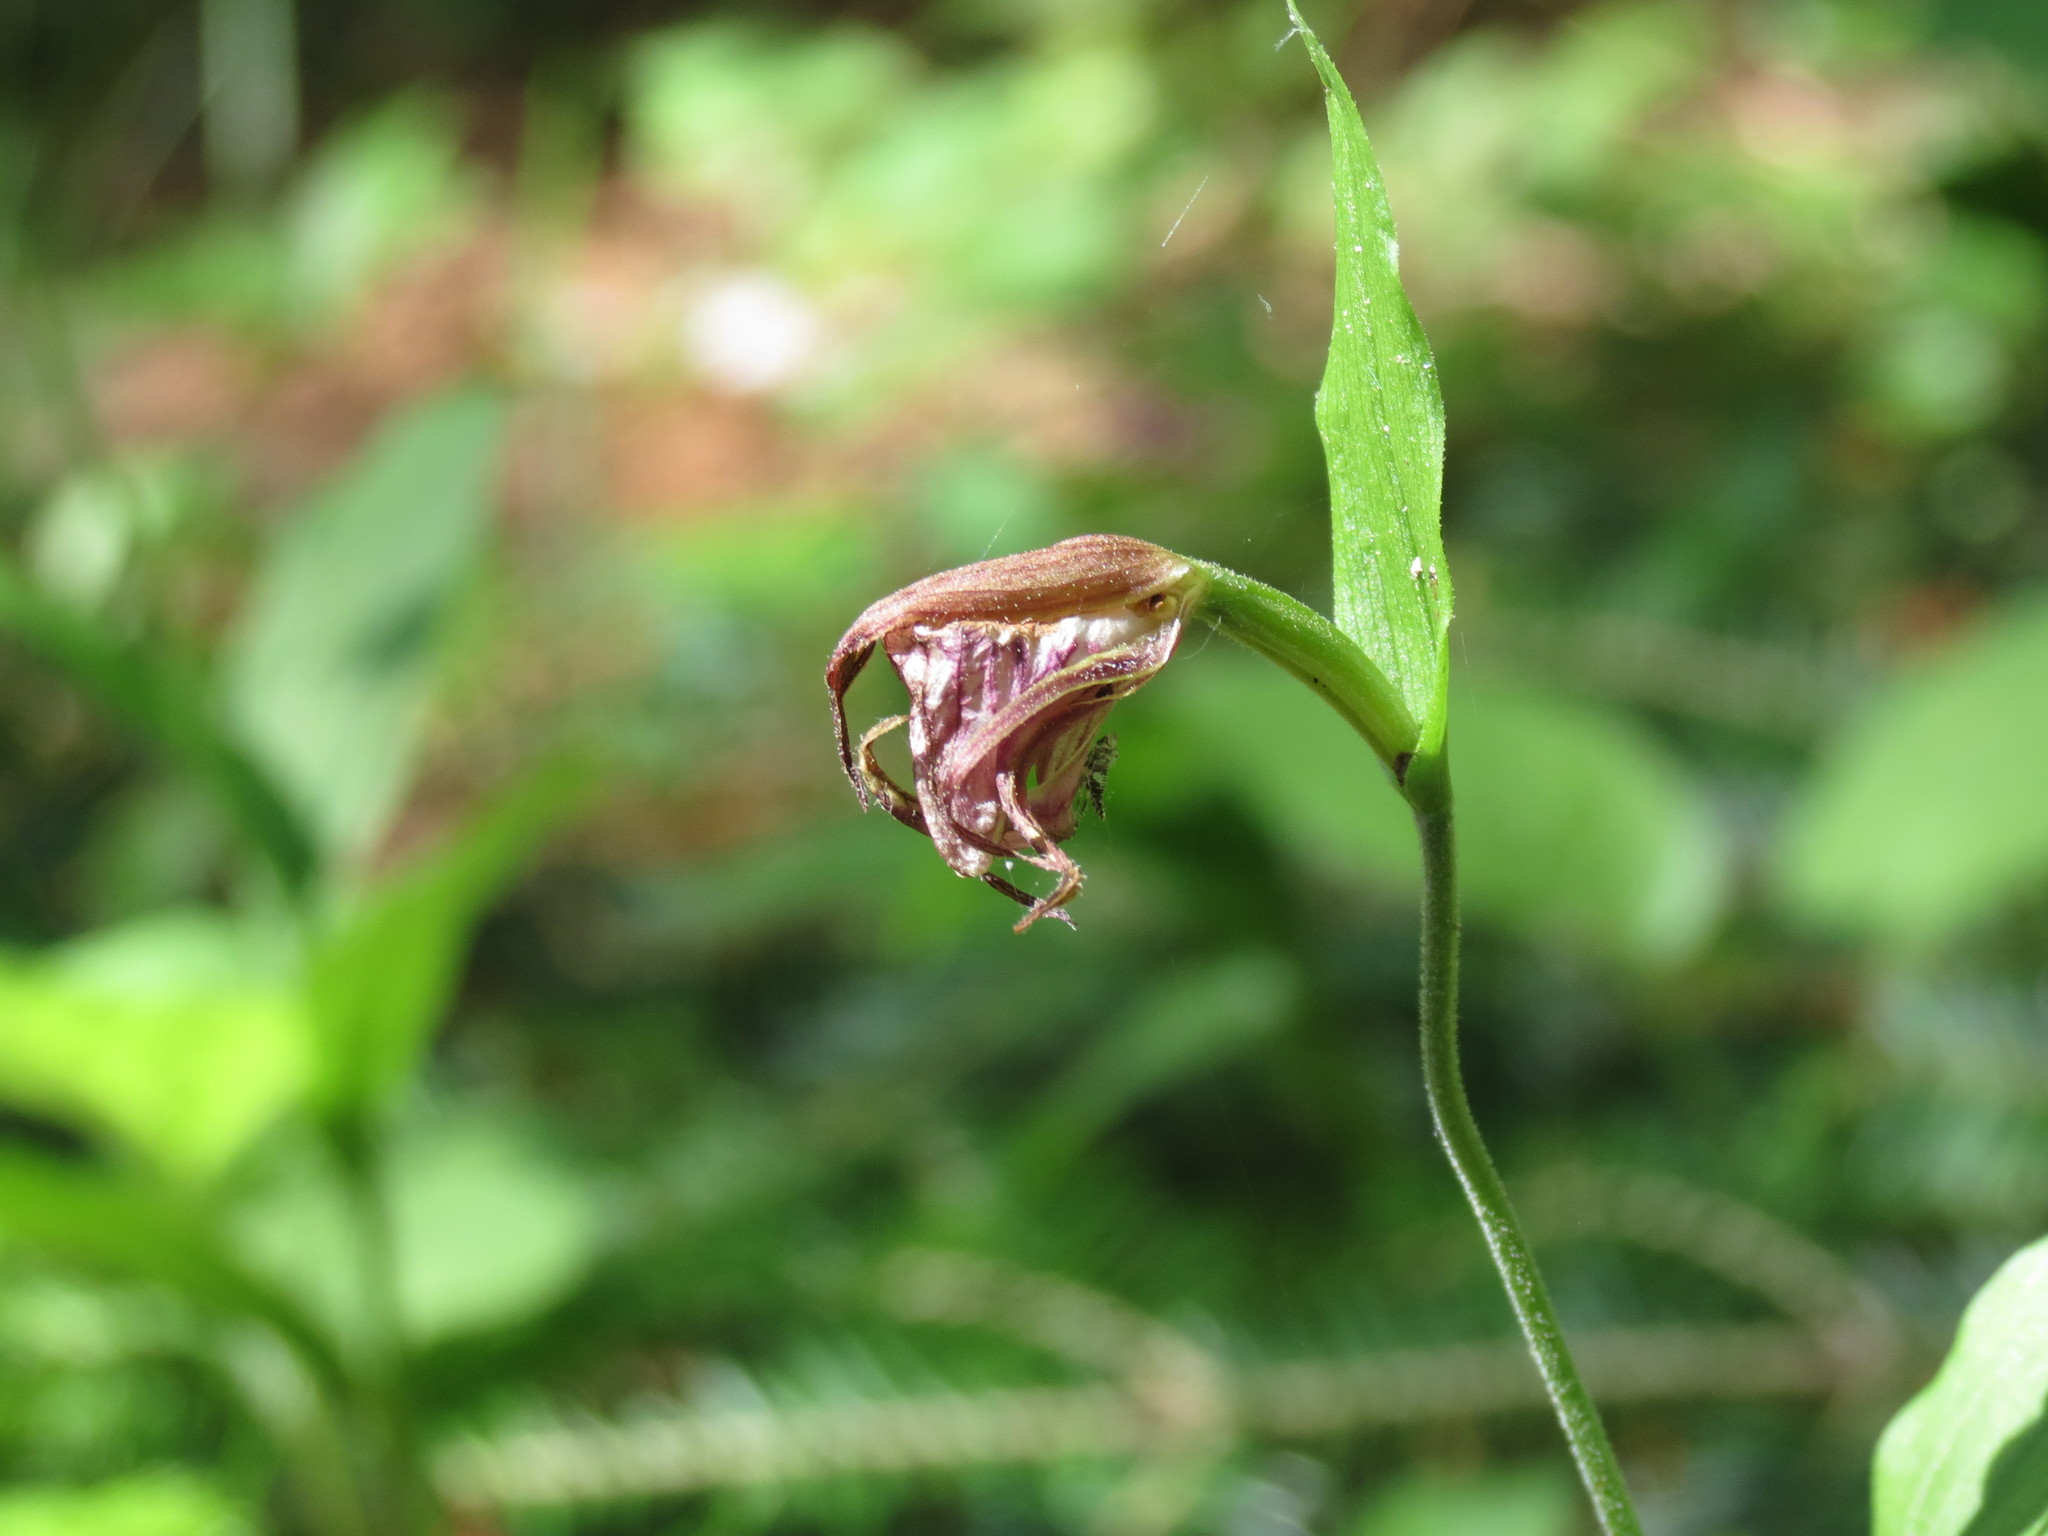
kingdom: Plantae
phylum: Tracheophyta
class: Liliopsida
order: Asparagales
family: Orchidaceae
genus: Cypripedium
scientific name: Cypripedium arietinum
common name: Ram's-head
